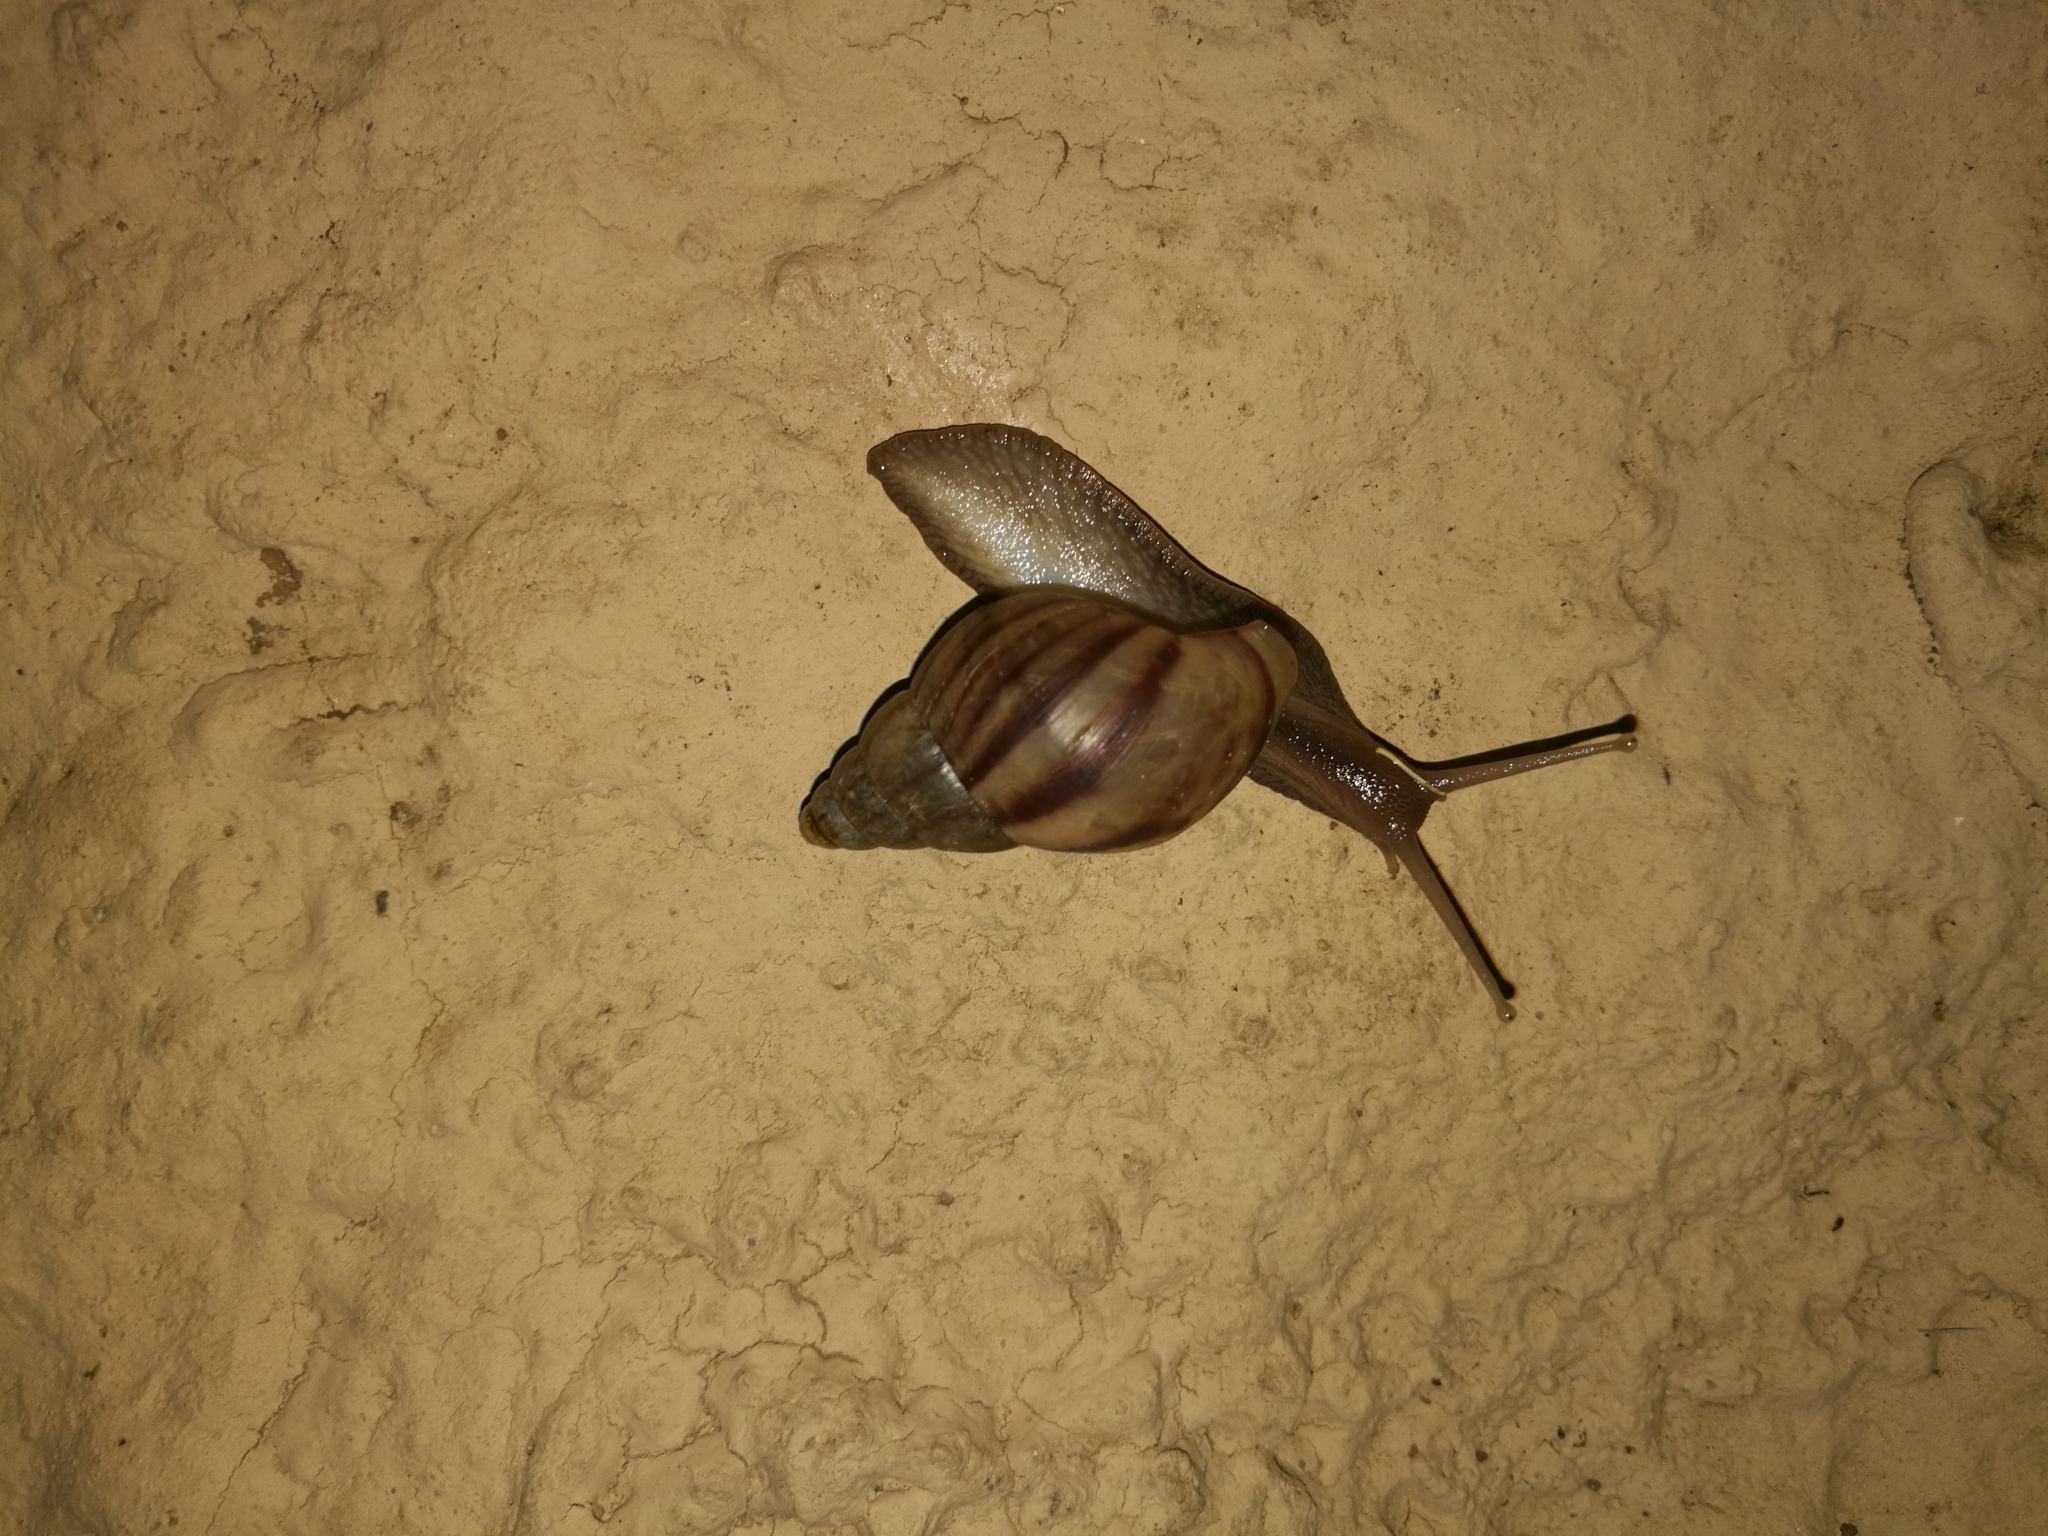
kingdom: Animalia
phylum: Mollusca
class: Gastropoda
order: Stylommatophora
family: Achatinidae
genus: Lissachatina
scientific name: Lissachatina fulica
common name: Giant african snail
